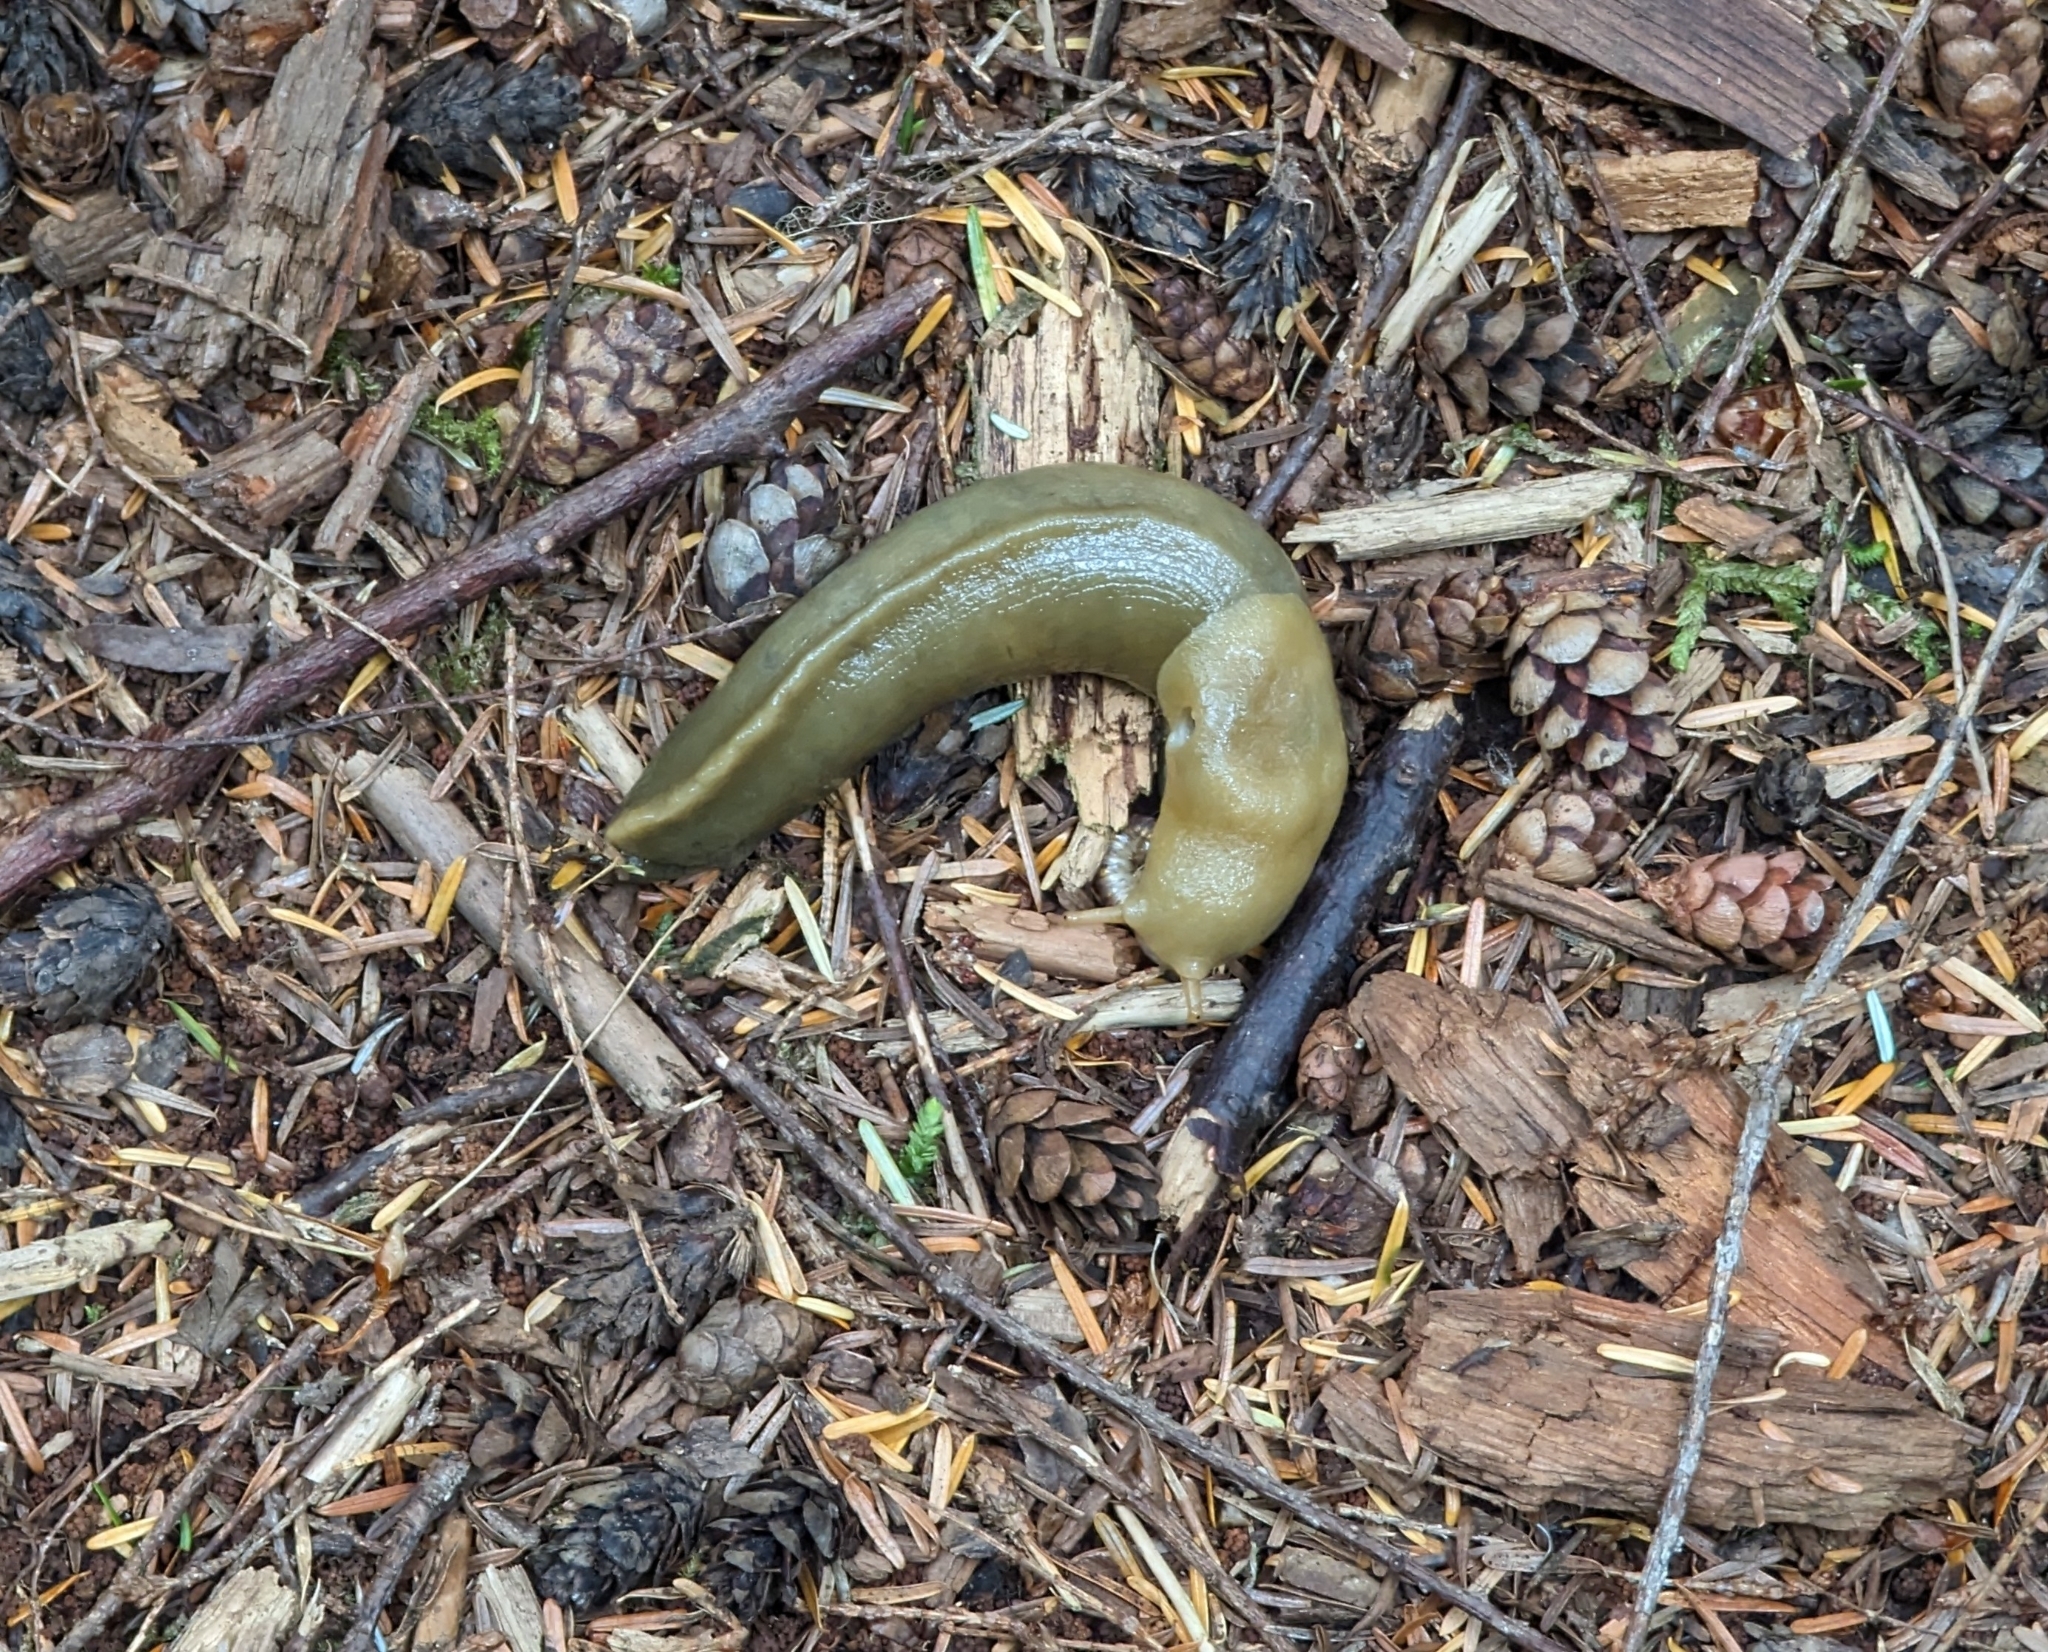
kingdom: Animalia
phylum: Mollusca
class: Gastropoda
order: Stylommatophora
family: Ariolimacidae
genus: Ariolimax
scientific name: Ariolimax columbianus
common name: Pacific banana slug
